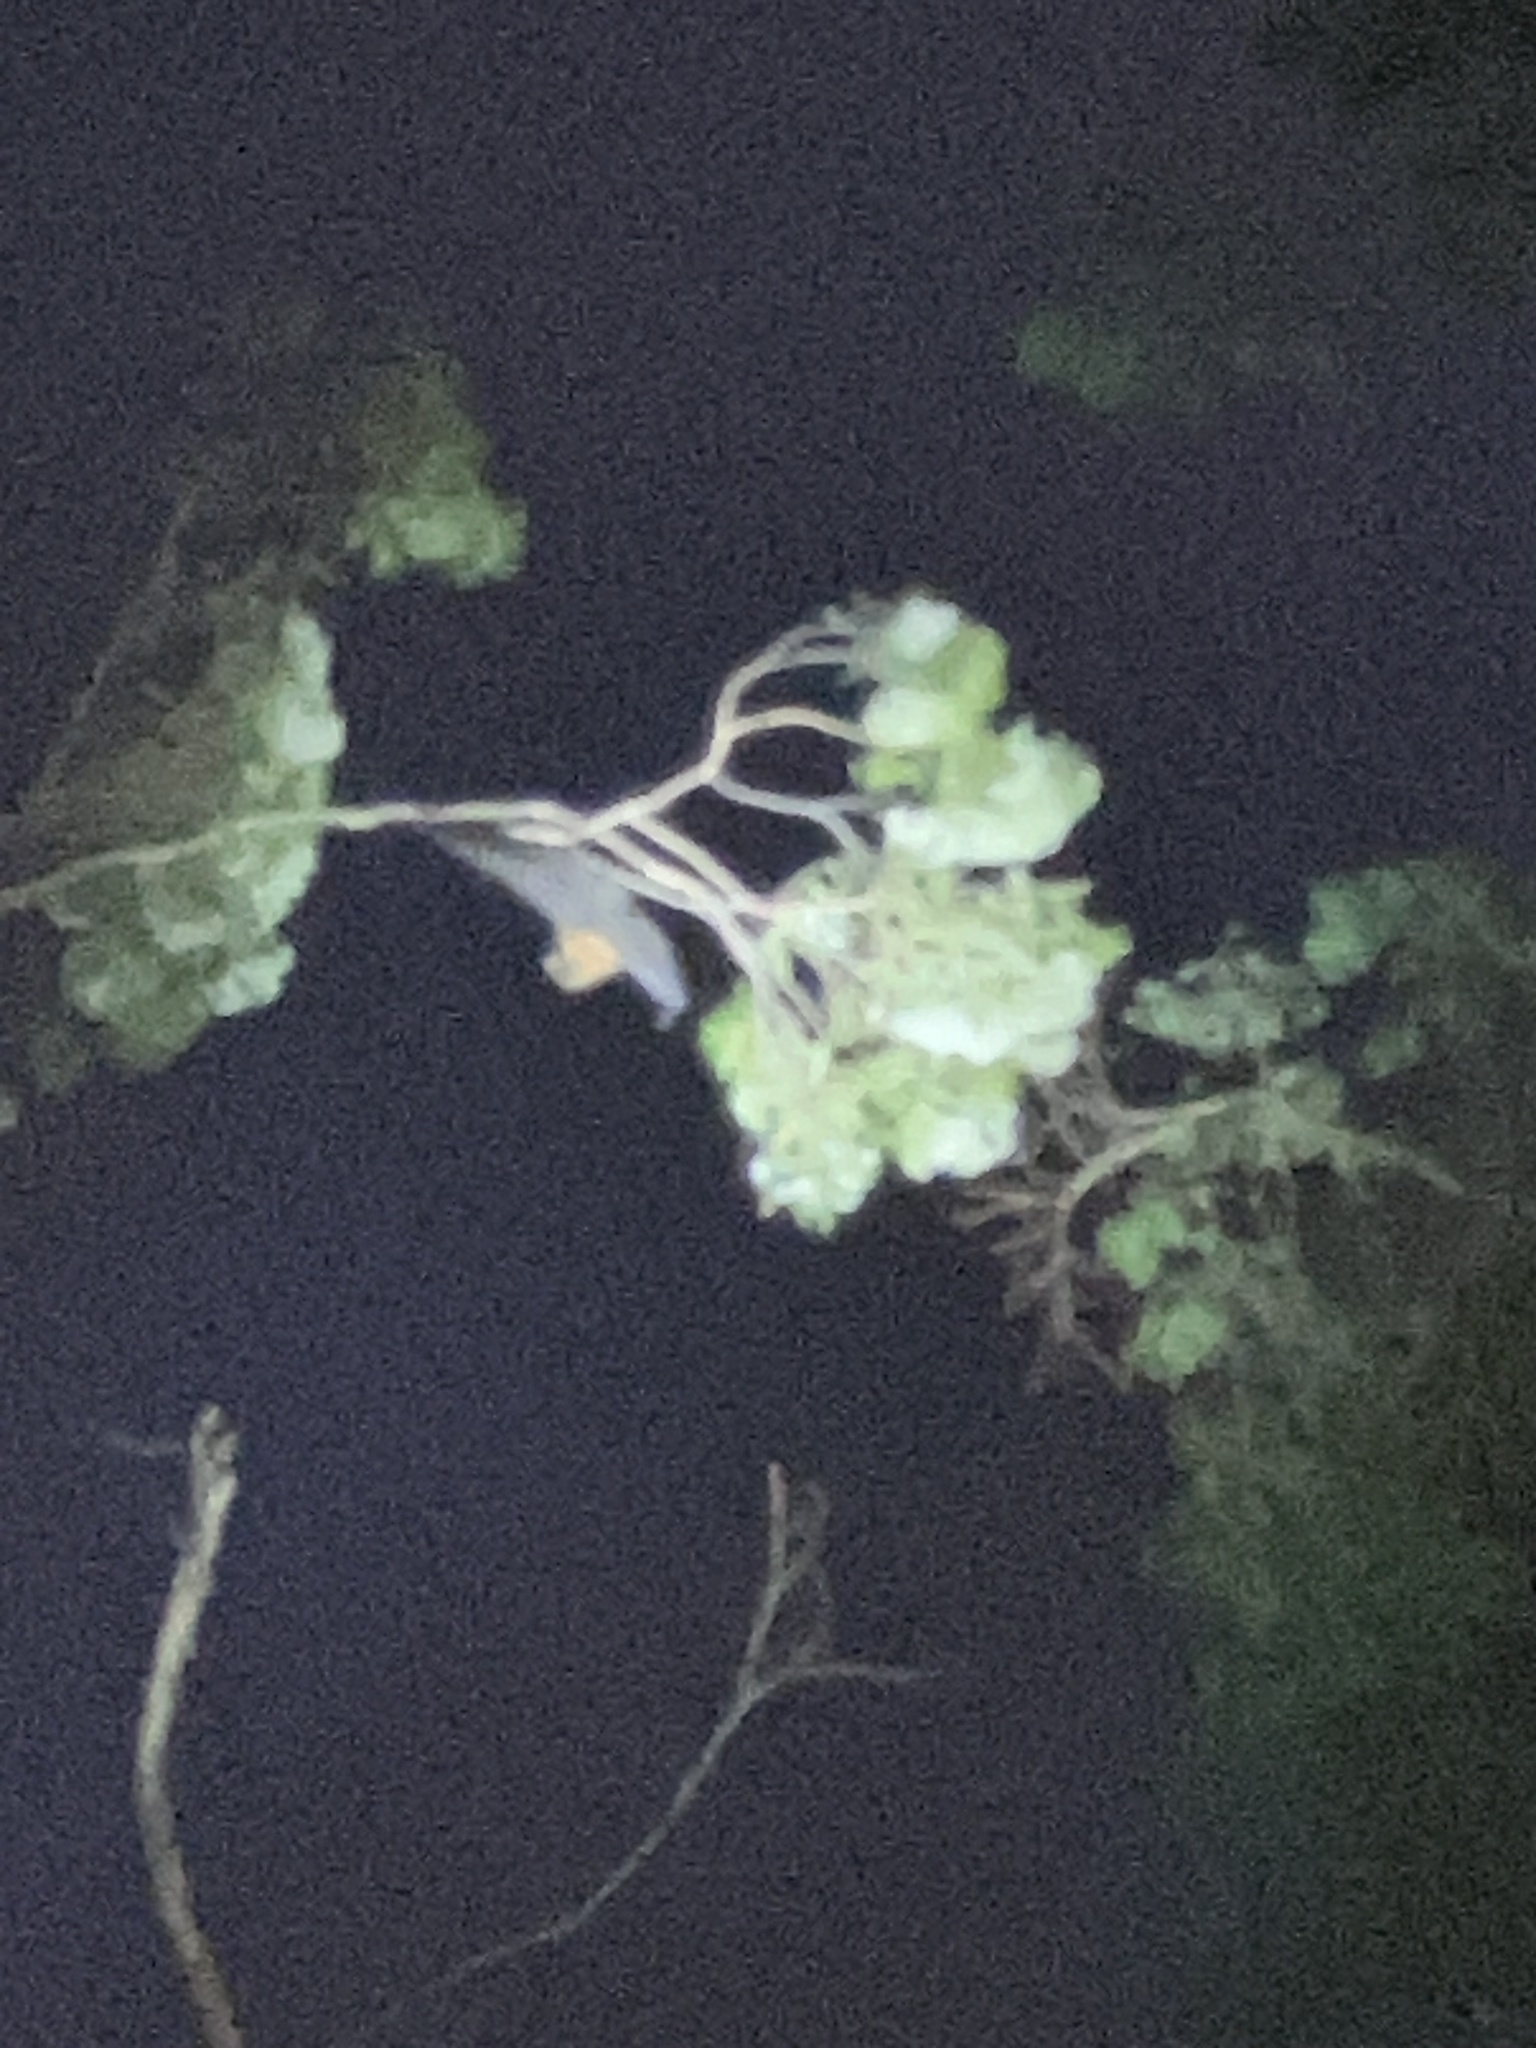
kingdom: Animalia
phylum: Chordata
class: Mammalia
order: Chiroptera
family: Pteropodidae
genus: Pteropus
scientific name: Pteropus poliocephalus
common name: Gray-headed flying fox
